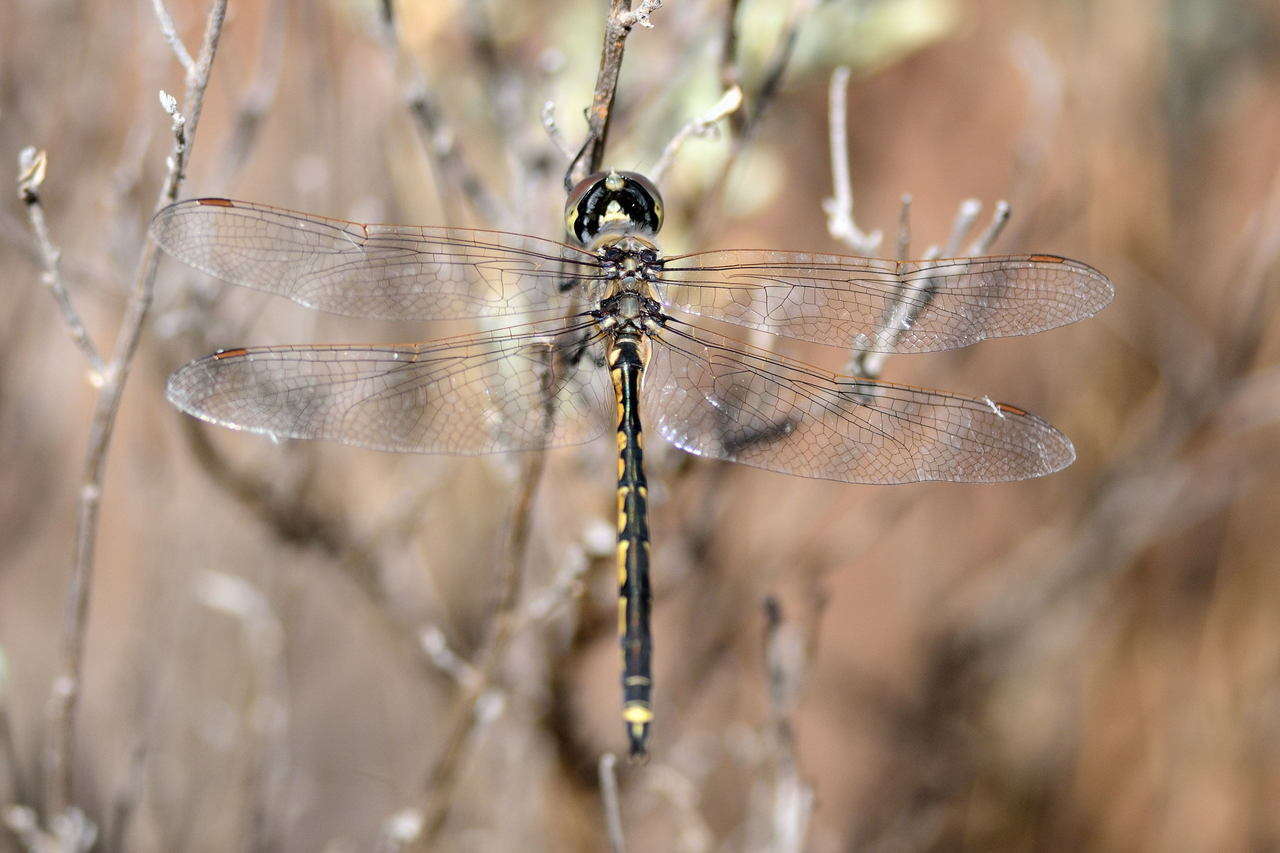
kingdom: Animalia
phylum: Arthropoda
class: Insecta
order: Odonata
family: Corduliidae
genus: Hemicordulia
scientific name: Hemicordulia tau
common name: Tau emerald
